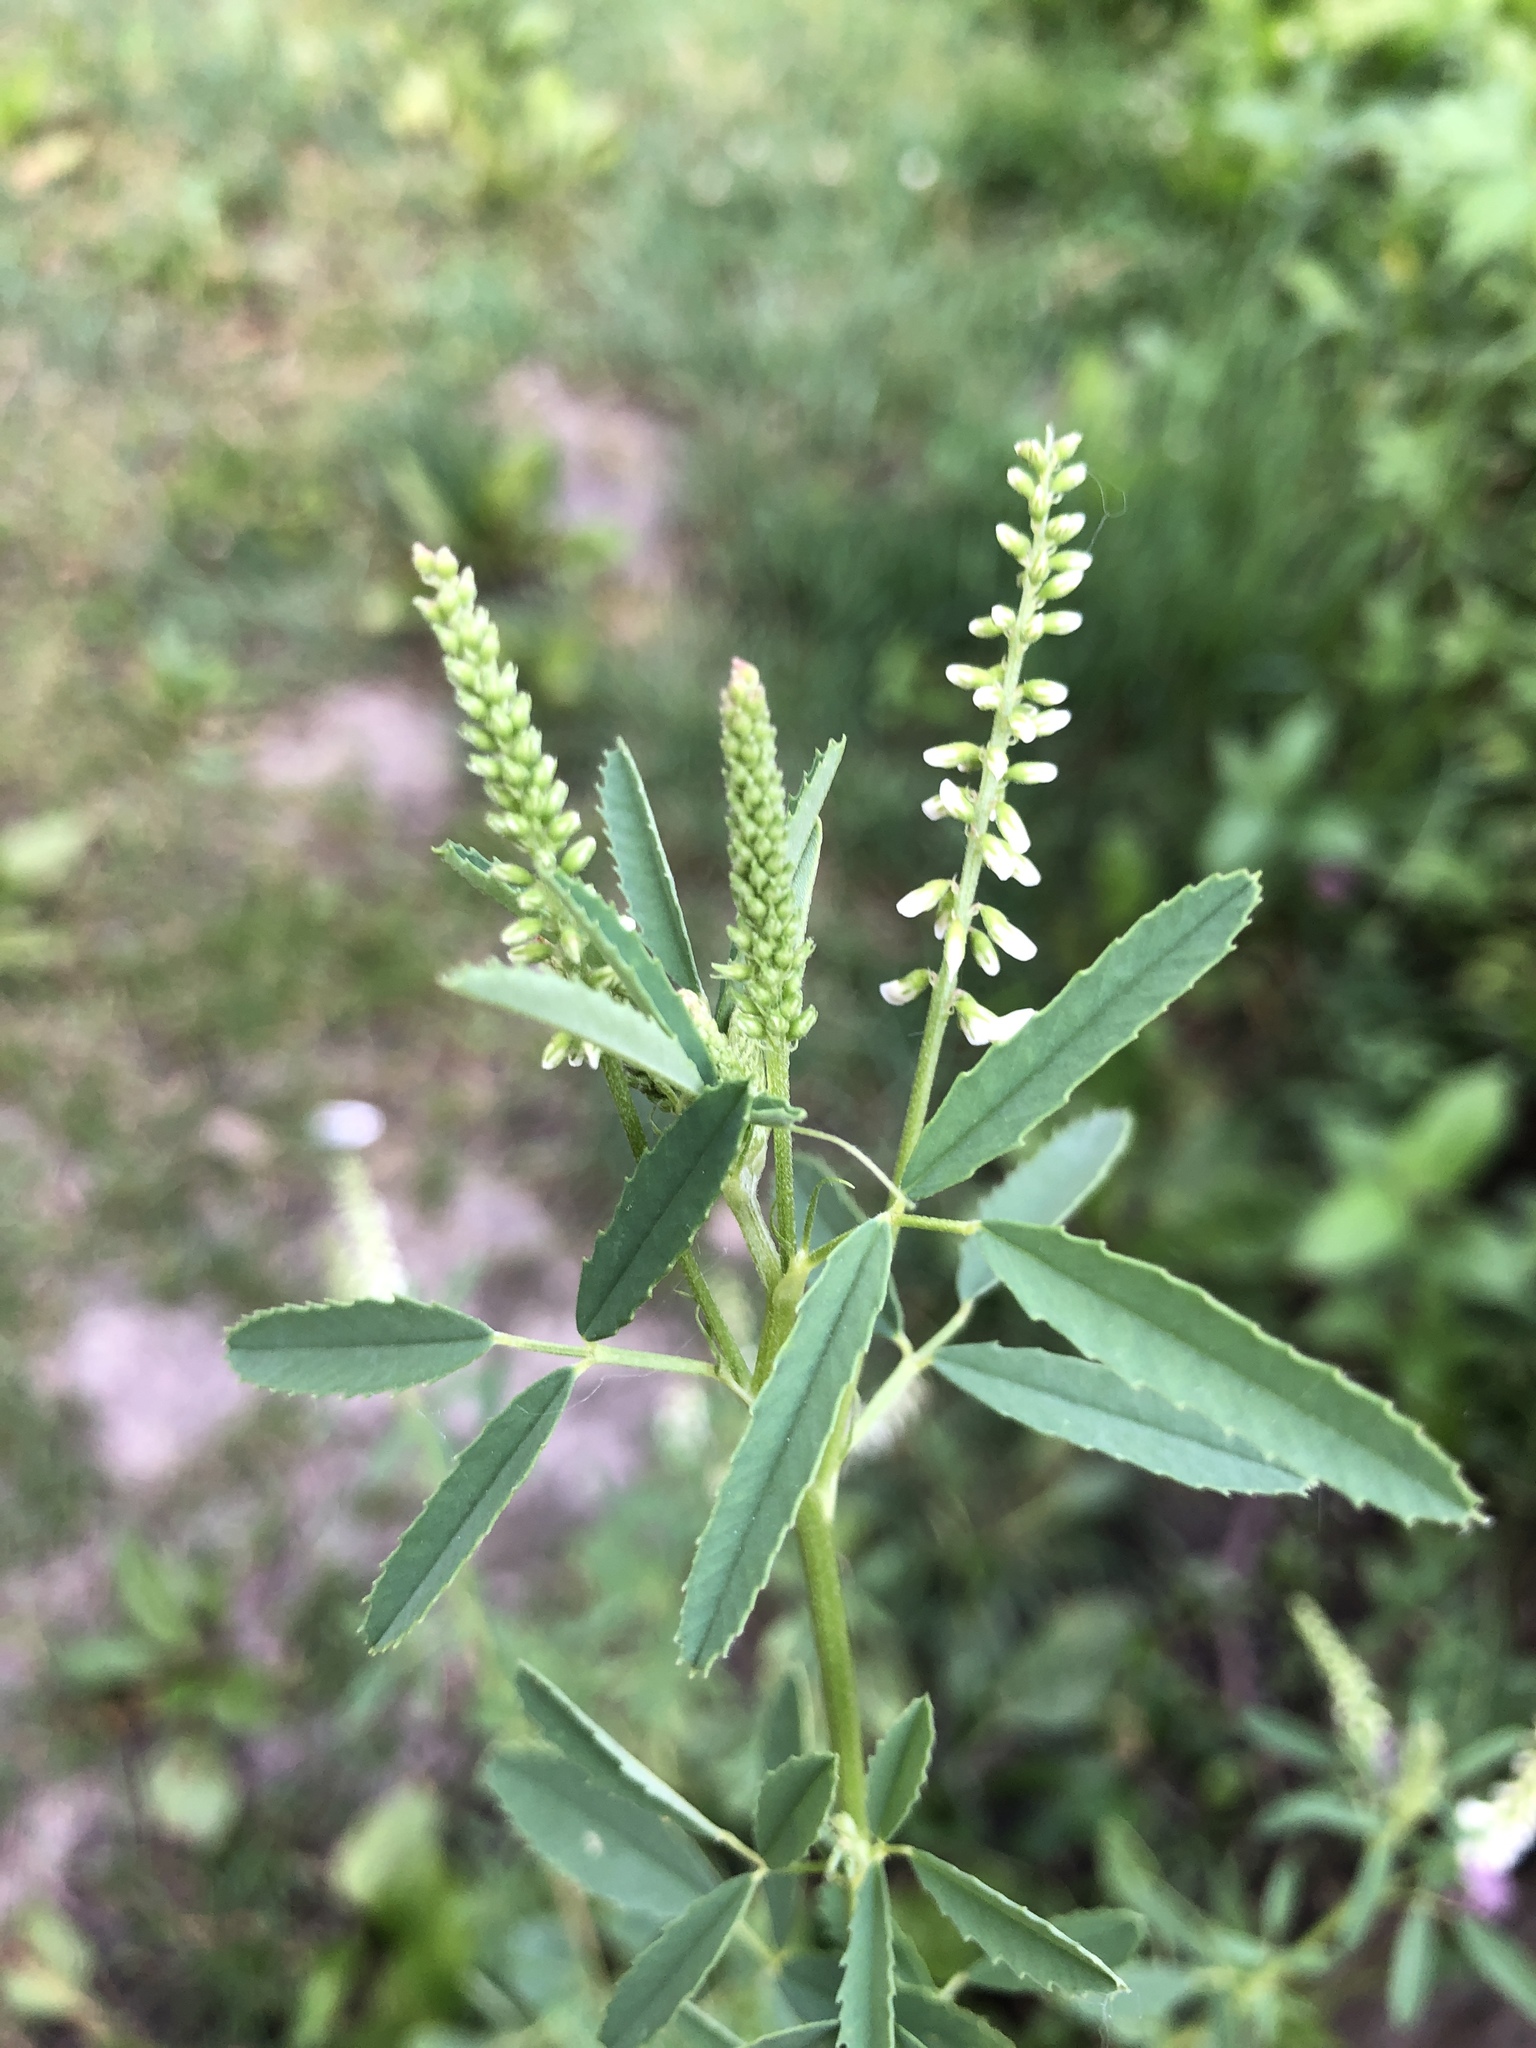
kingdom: Plantae
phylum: Tracheophyta
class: Magnoliopsida
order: Fabales
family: Fabaceae
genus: Melilotus
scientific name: Melilotus albus
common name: White melilot
